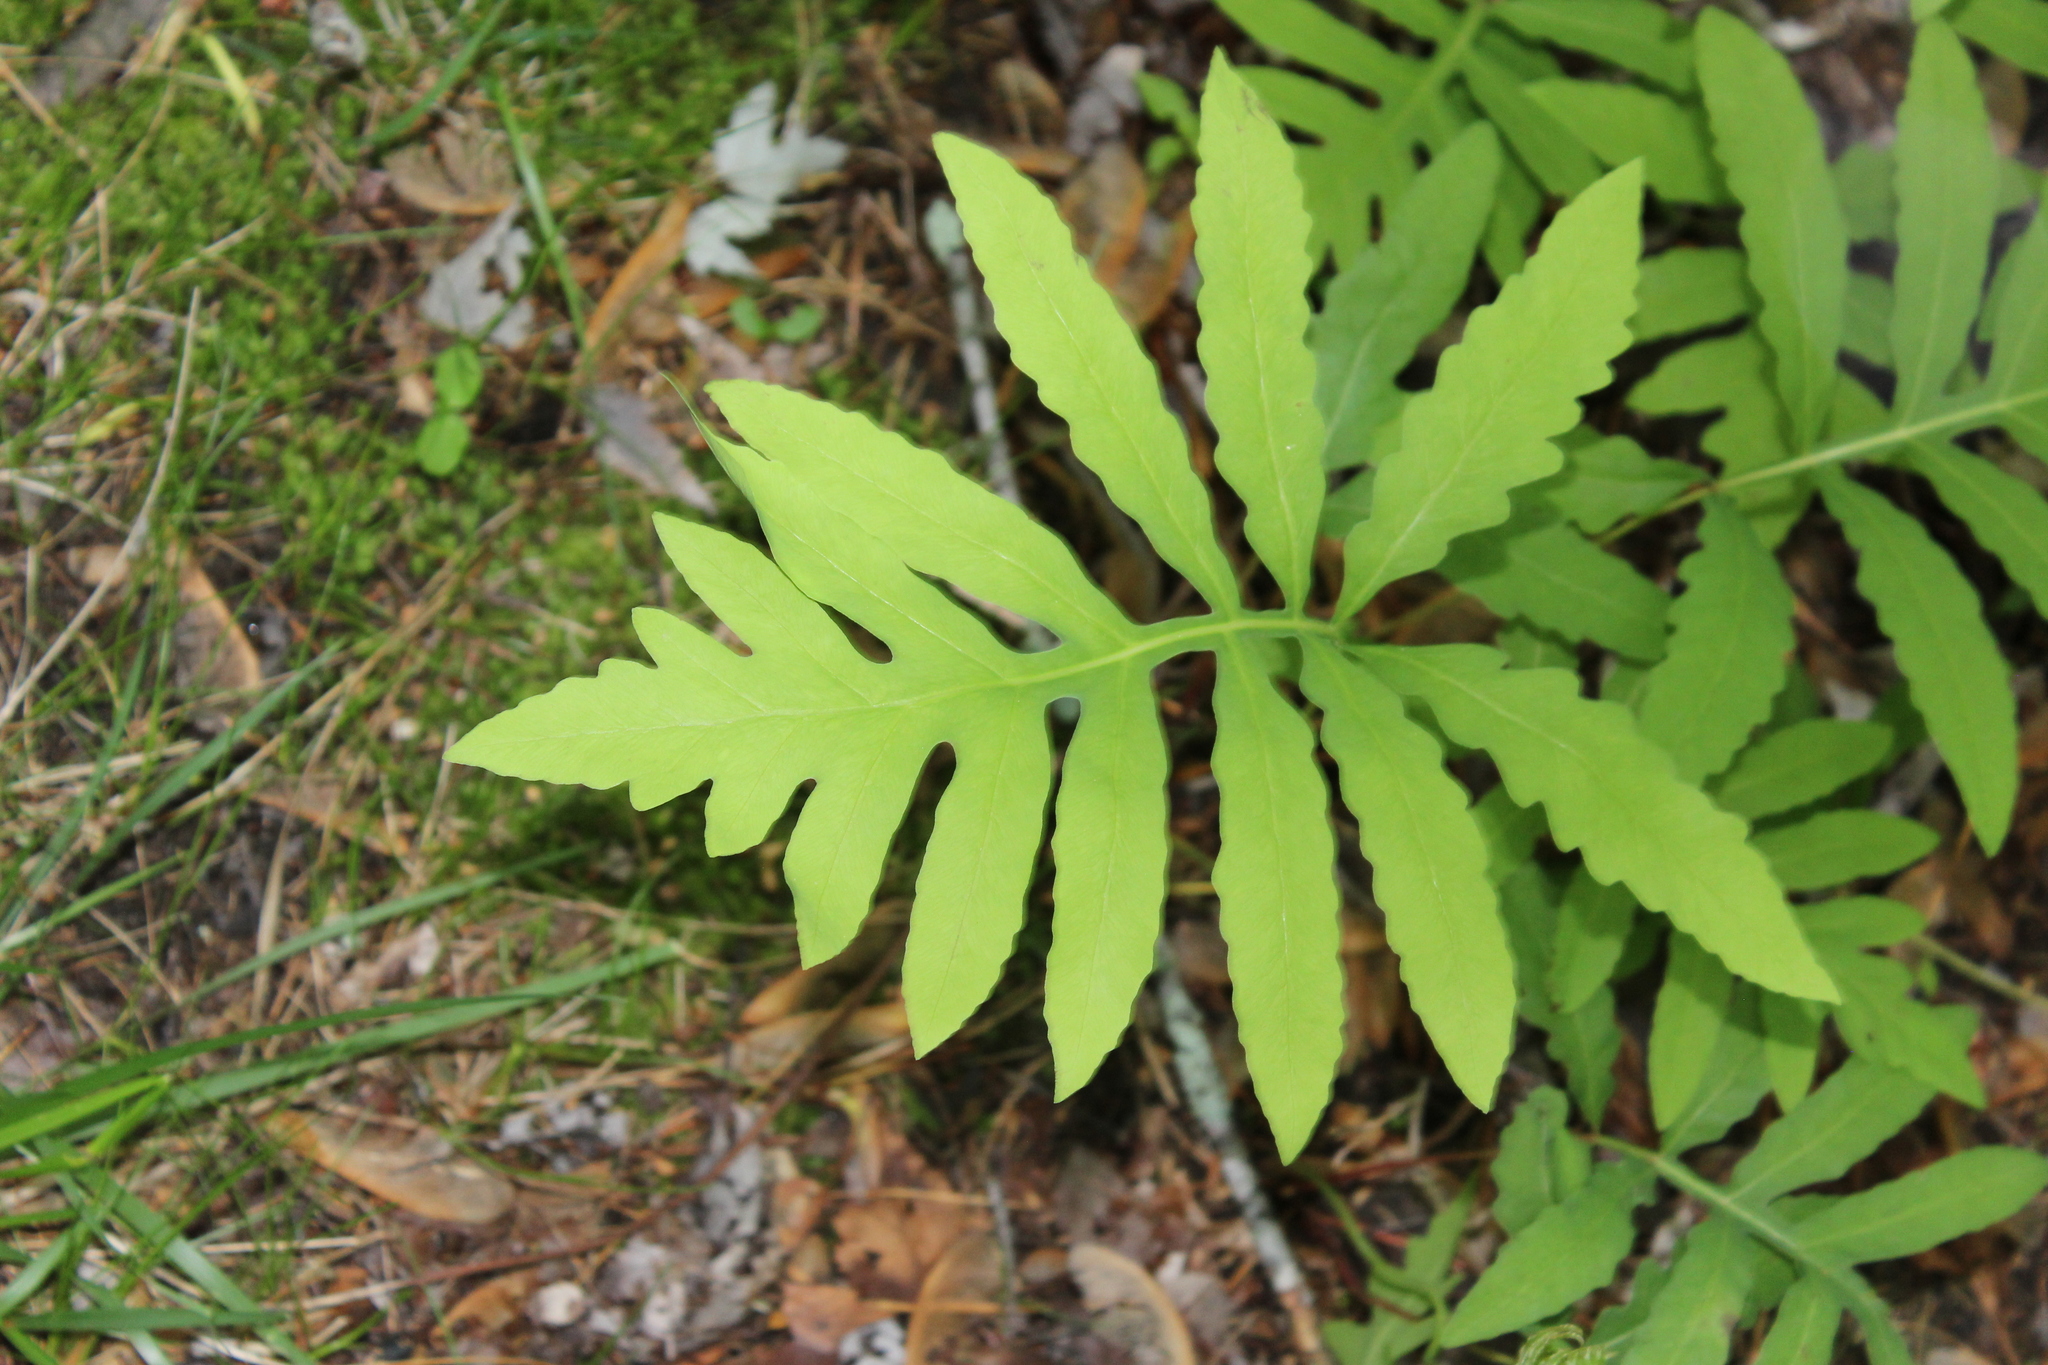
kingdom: Plantae
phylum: Tracheophyta
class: Polypodiopsida
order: Polypodiales
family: Onocleaceae
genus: Onoclea
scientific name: Onoclea sensibilis
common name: Sensitive fern
